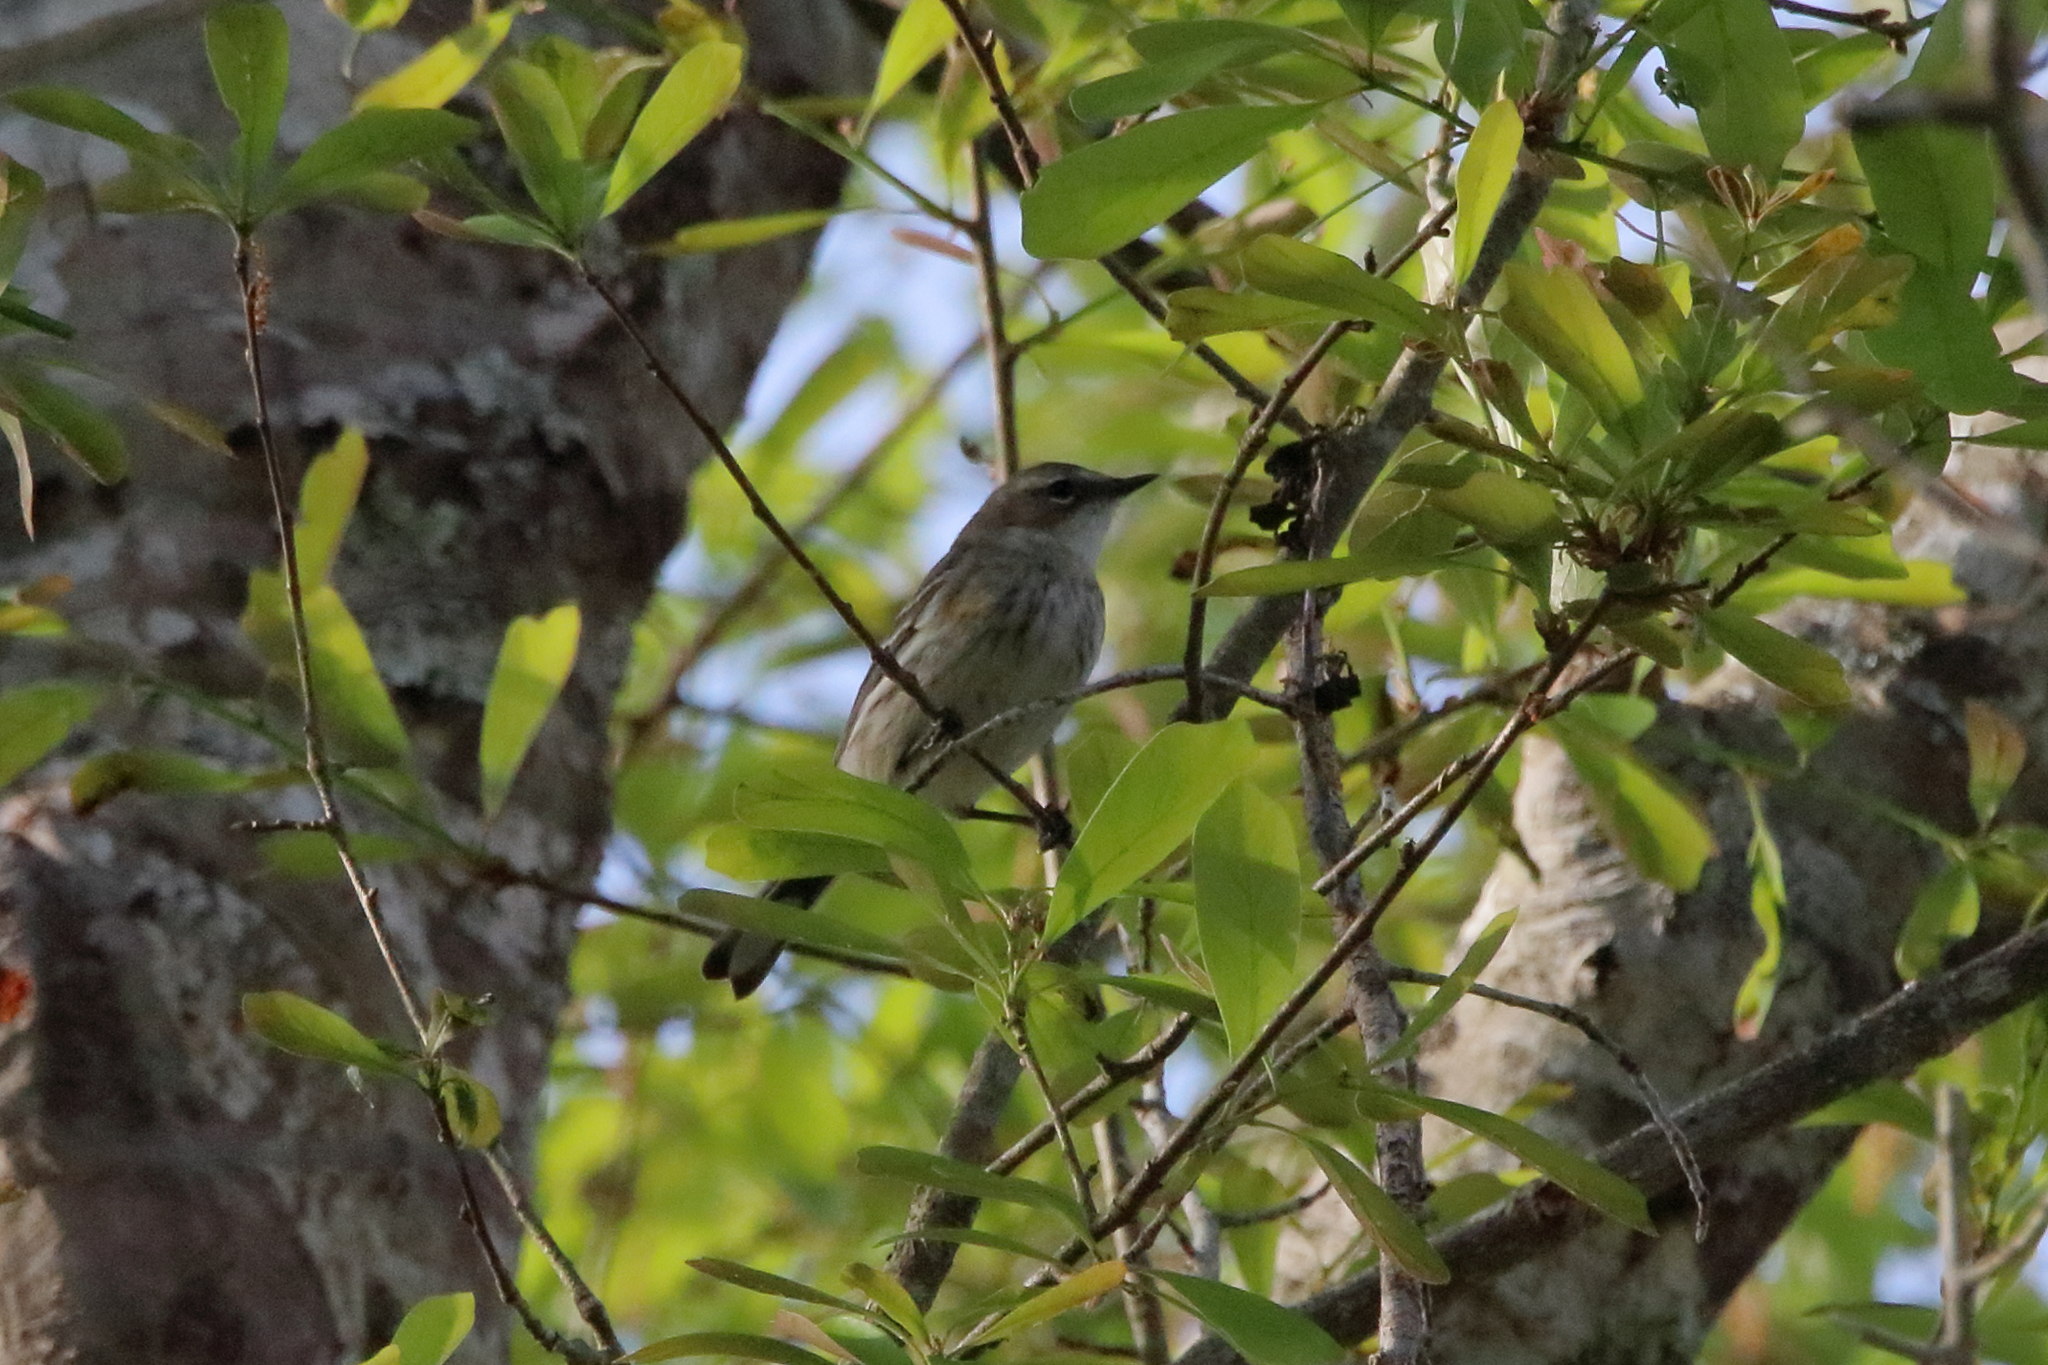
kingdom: Animalia
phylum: Chordata
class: Aves
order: Passeriformes
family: Parulidae
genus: Setophaga
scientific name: Setophaga coronata
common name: Myrtle warbler
